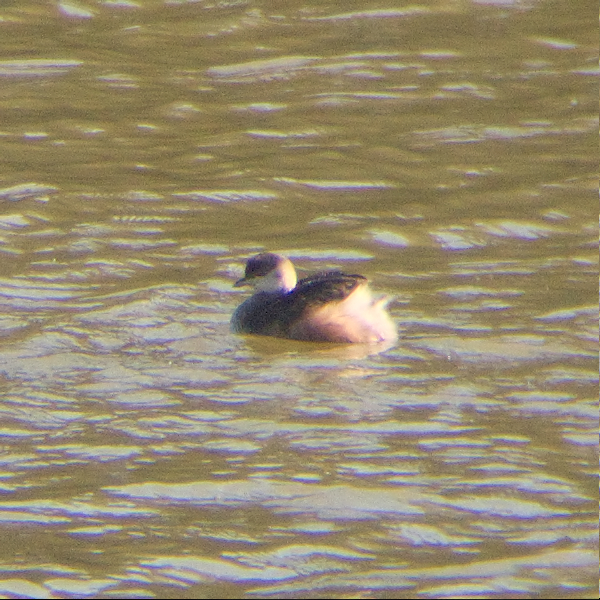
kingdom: Animalia
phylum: Chordata
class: Aves
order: Podicipediformes
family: Podicipedidae
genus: Poliocephalus
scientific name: Poliocephalus poliocephalus
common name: Hoary-headed grebe
